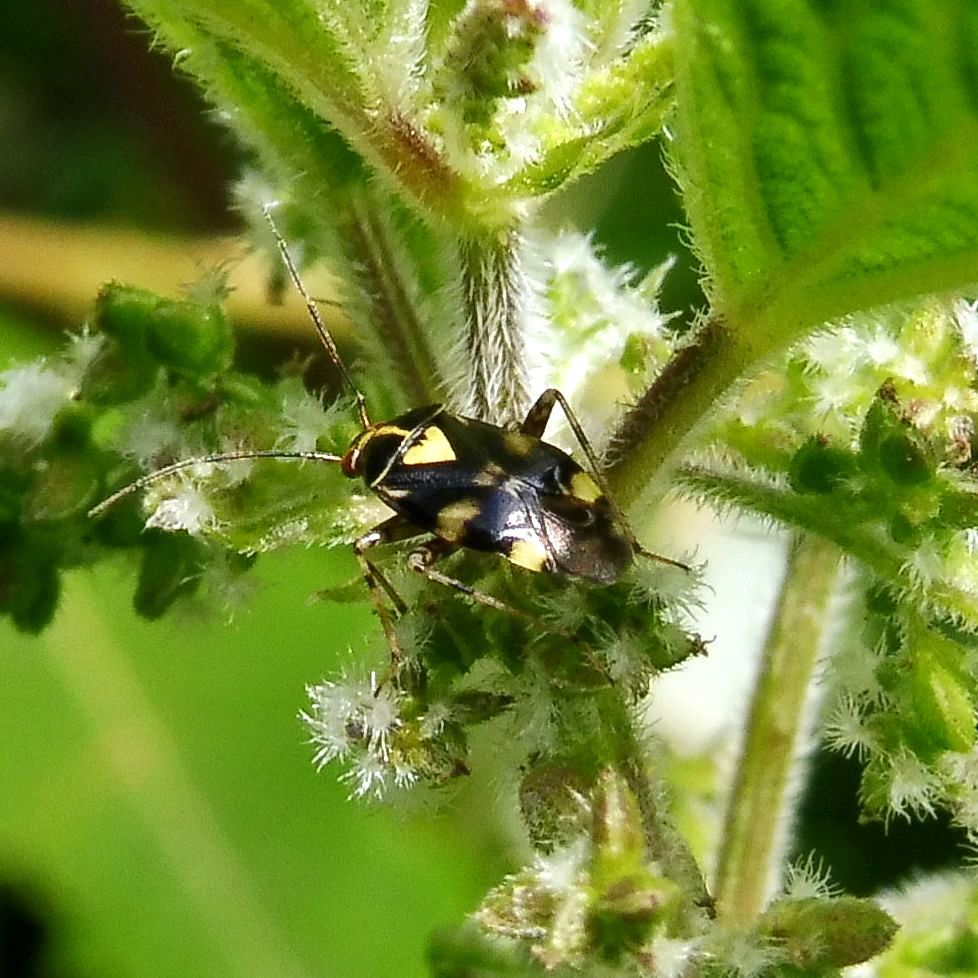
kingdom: Animalia
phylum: Arthropoda
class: Insecta
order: Hemiptera
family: Miridae
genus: Liocoris
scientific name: Liocoris tripustulatus
